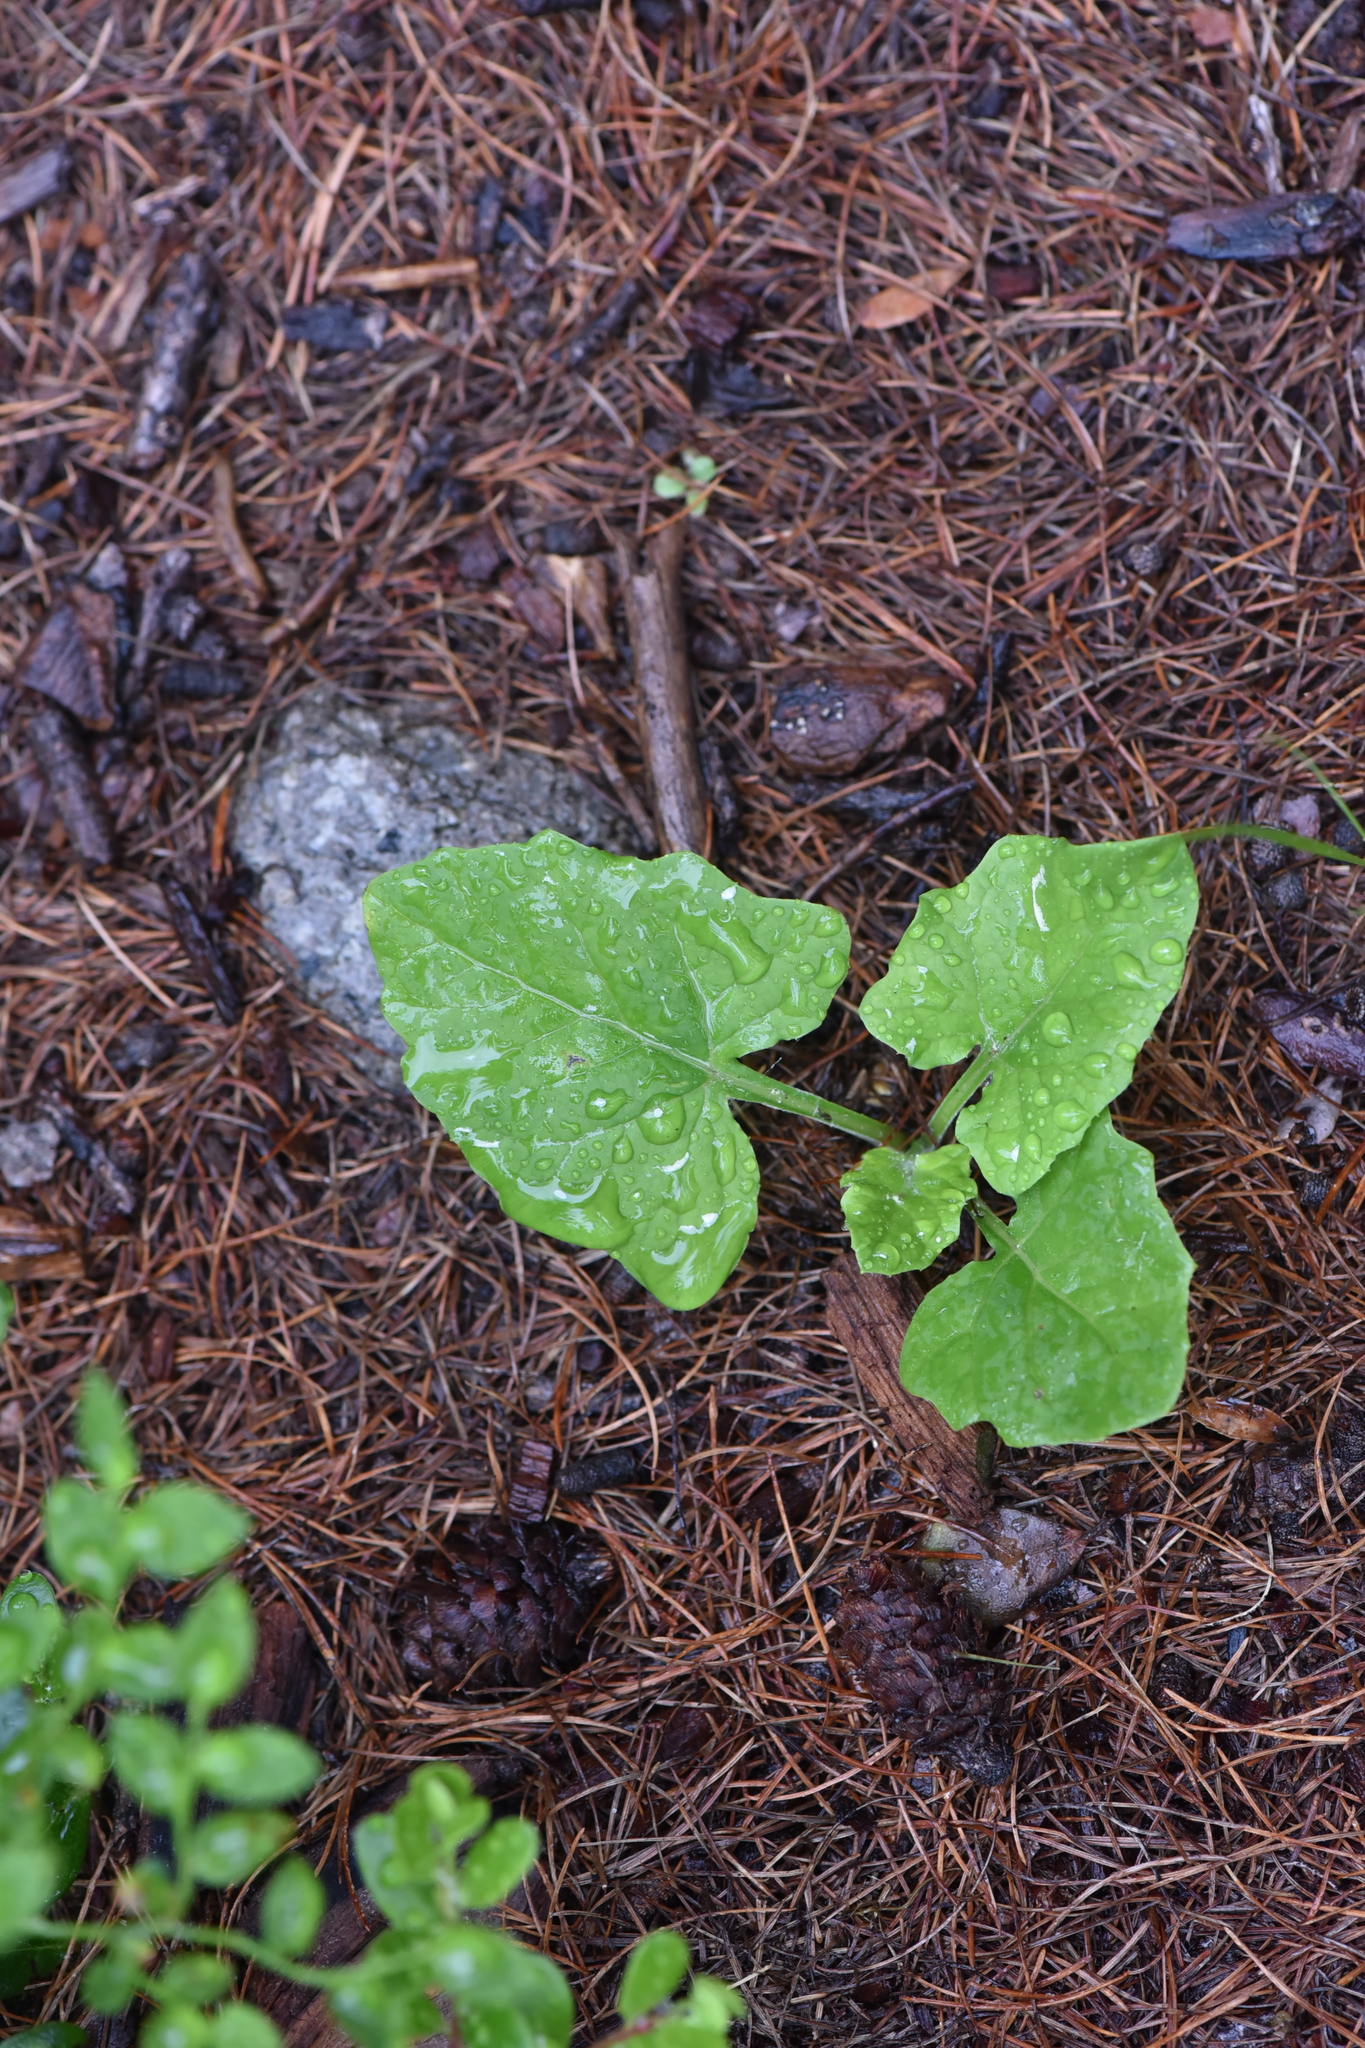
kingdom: Plantae
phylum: Tracheophyta
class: Magnoliopsida
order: Asterales
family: Asteraceae
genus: Adenocaulon
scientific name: Adenocaulon bicolor
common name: Trailplant
